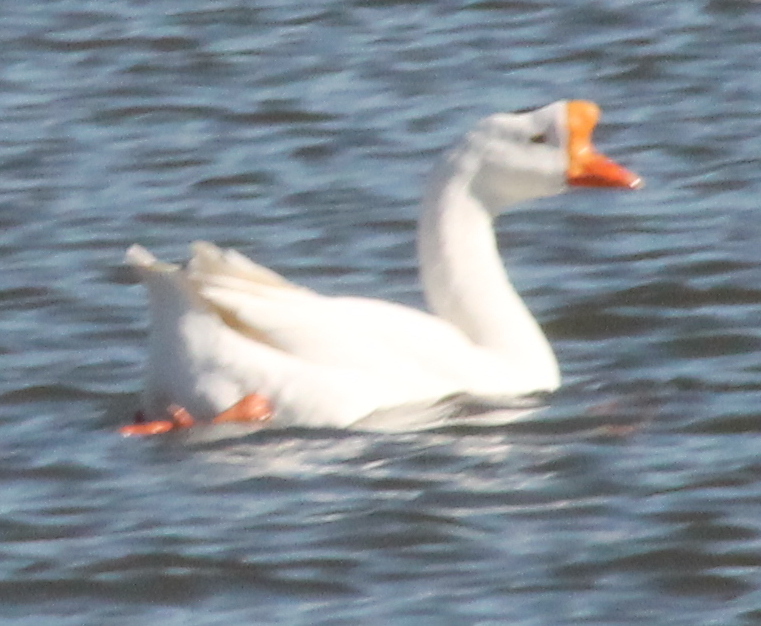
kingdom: Animalia
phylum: Chordata
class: Aves
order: Anseriformes
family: Anatidae
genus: Anser
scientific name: Anser cygnoides
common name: Swan goose
